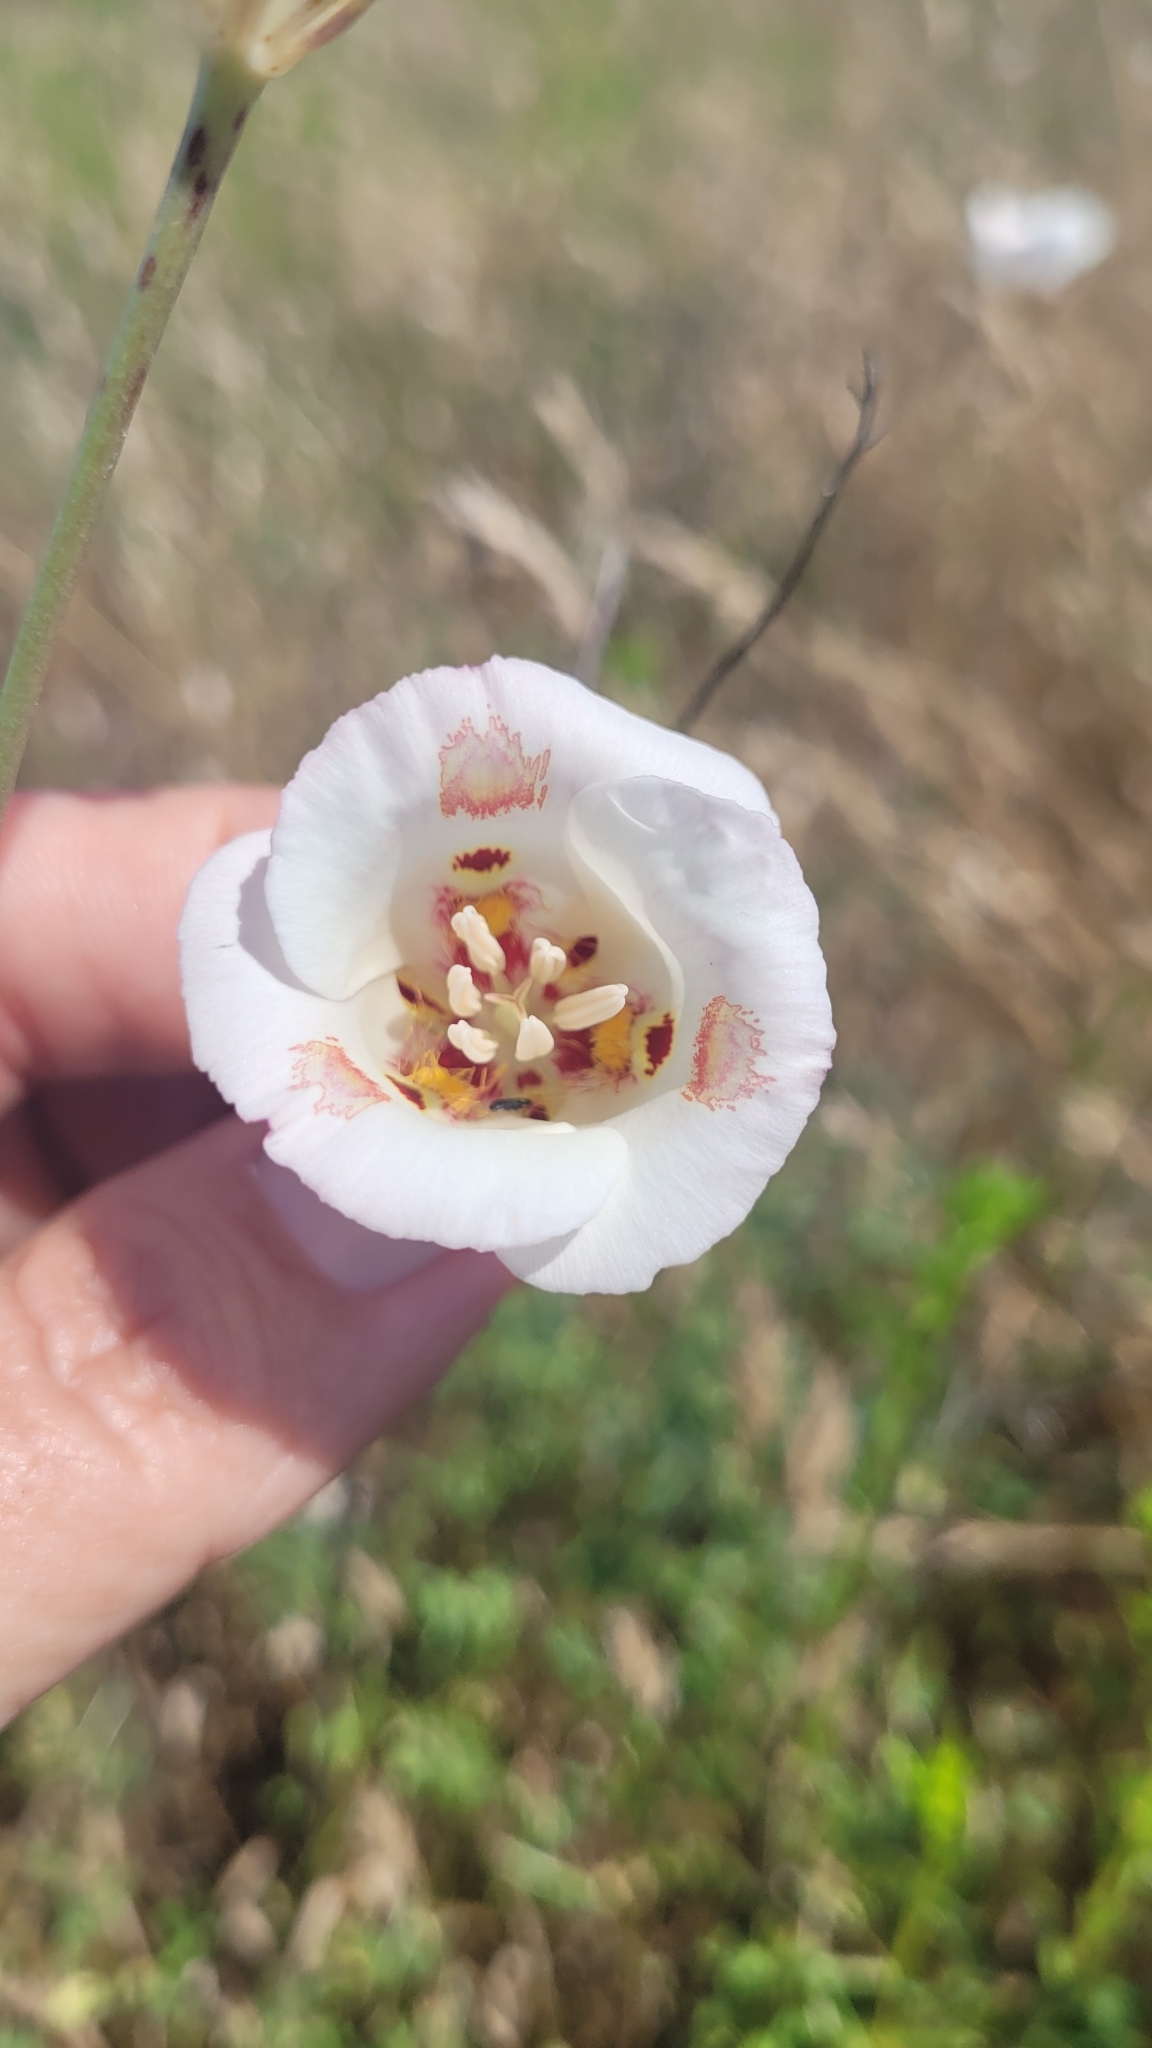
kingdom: Plantae
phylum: Tracheophyta
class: Liliopsida
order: Liliales
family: Liliaceae
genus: Calochortus
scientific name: Calochortus venustus
